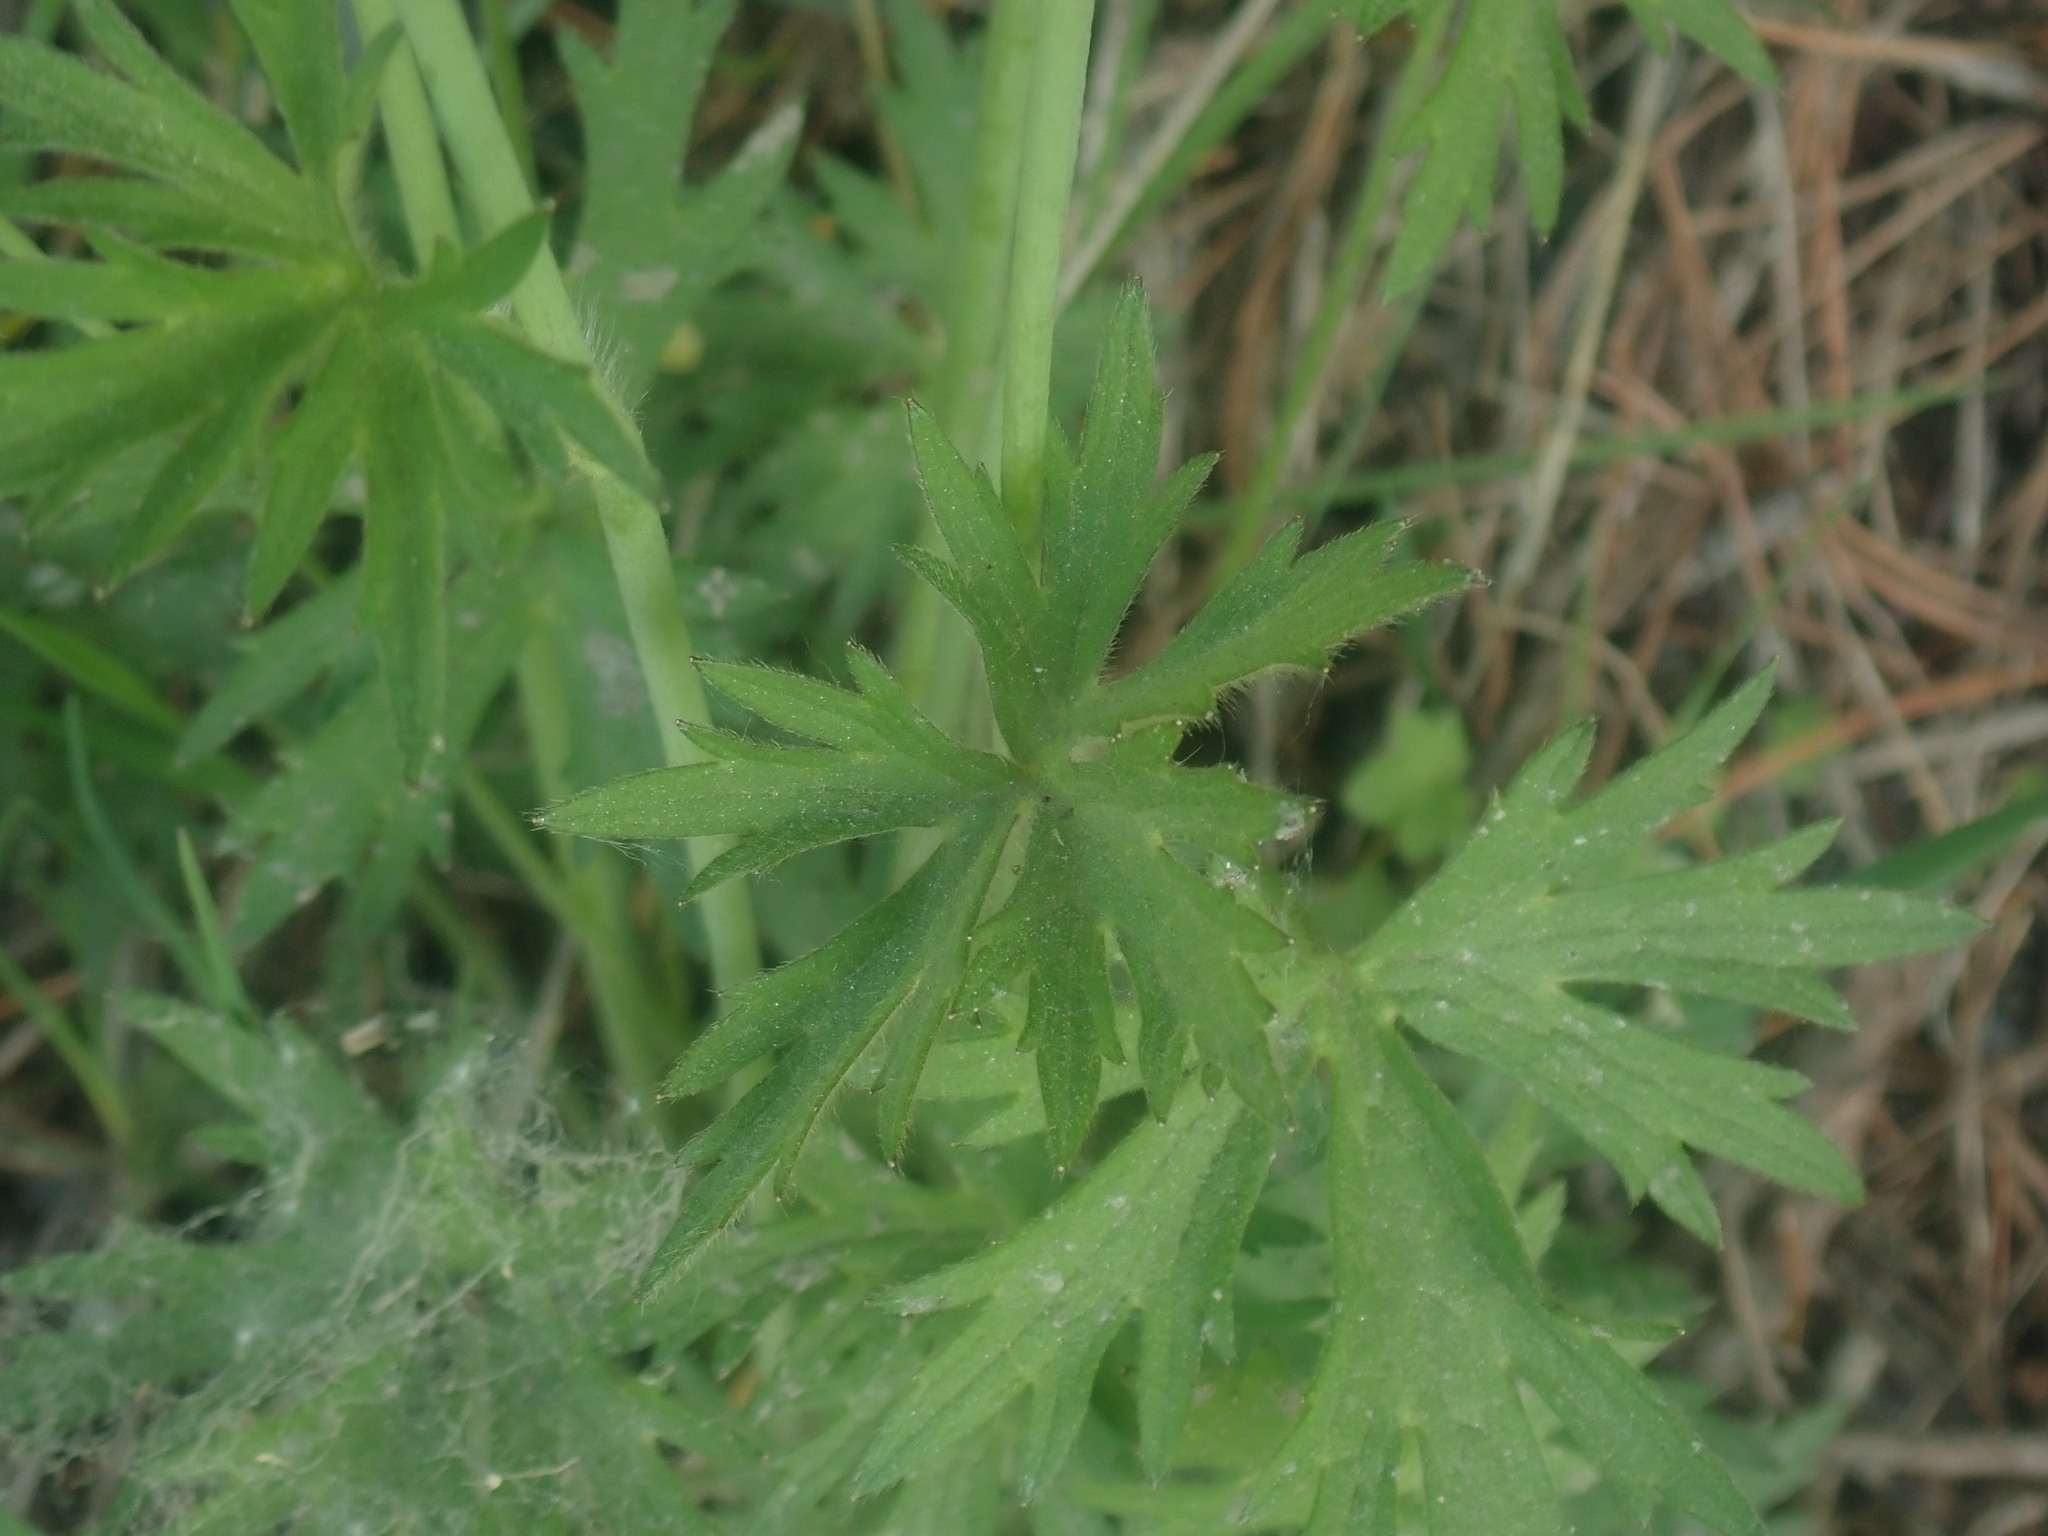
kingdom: Plantae
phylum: Tracheophyta
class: Magnoliopsida
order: Ranunculales
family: Ranunculaceae
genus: Ranunculus
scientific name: Ranunculus acris
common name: Meadow buttercup
